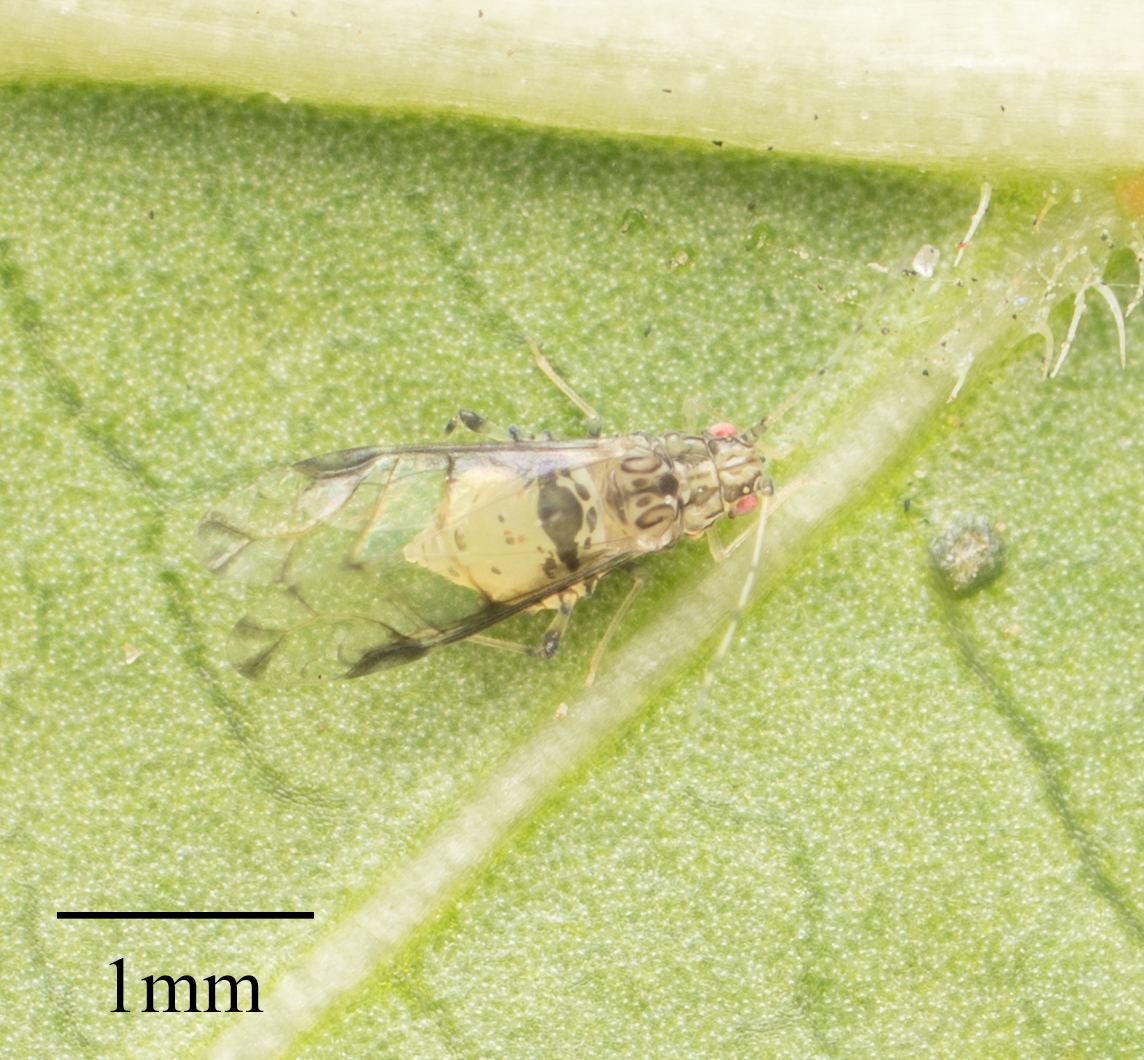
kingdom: Animalia
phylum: Arthropoda
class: Insecta
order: Hemiptera
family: Aphididae
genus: Sarucallis
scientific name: Sarucallis kahawaluokalani
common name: Crapemyrtle aphid
